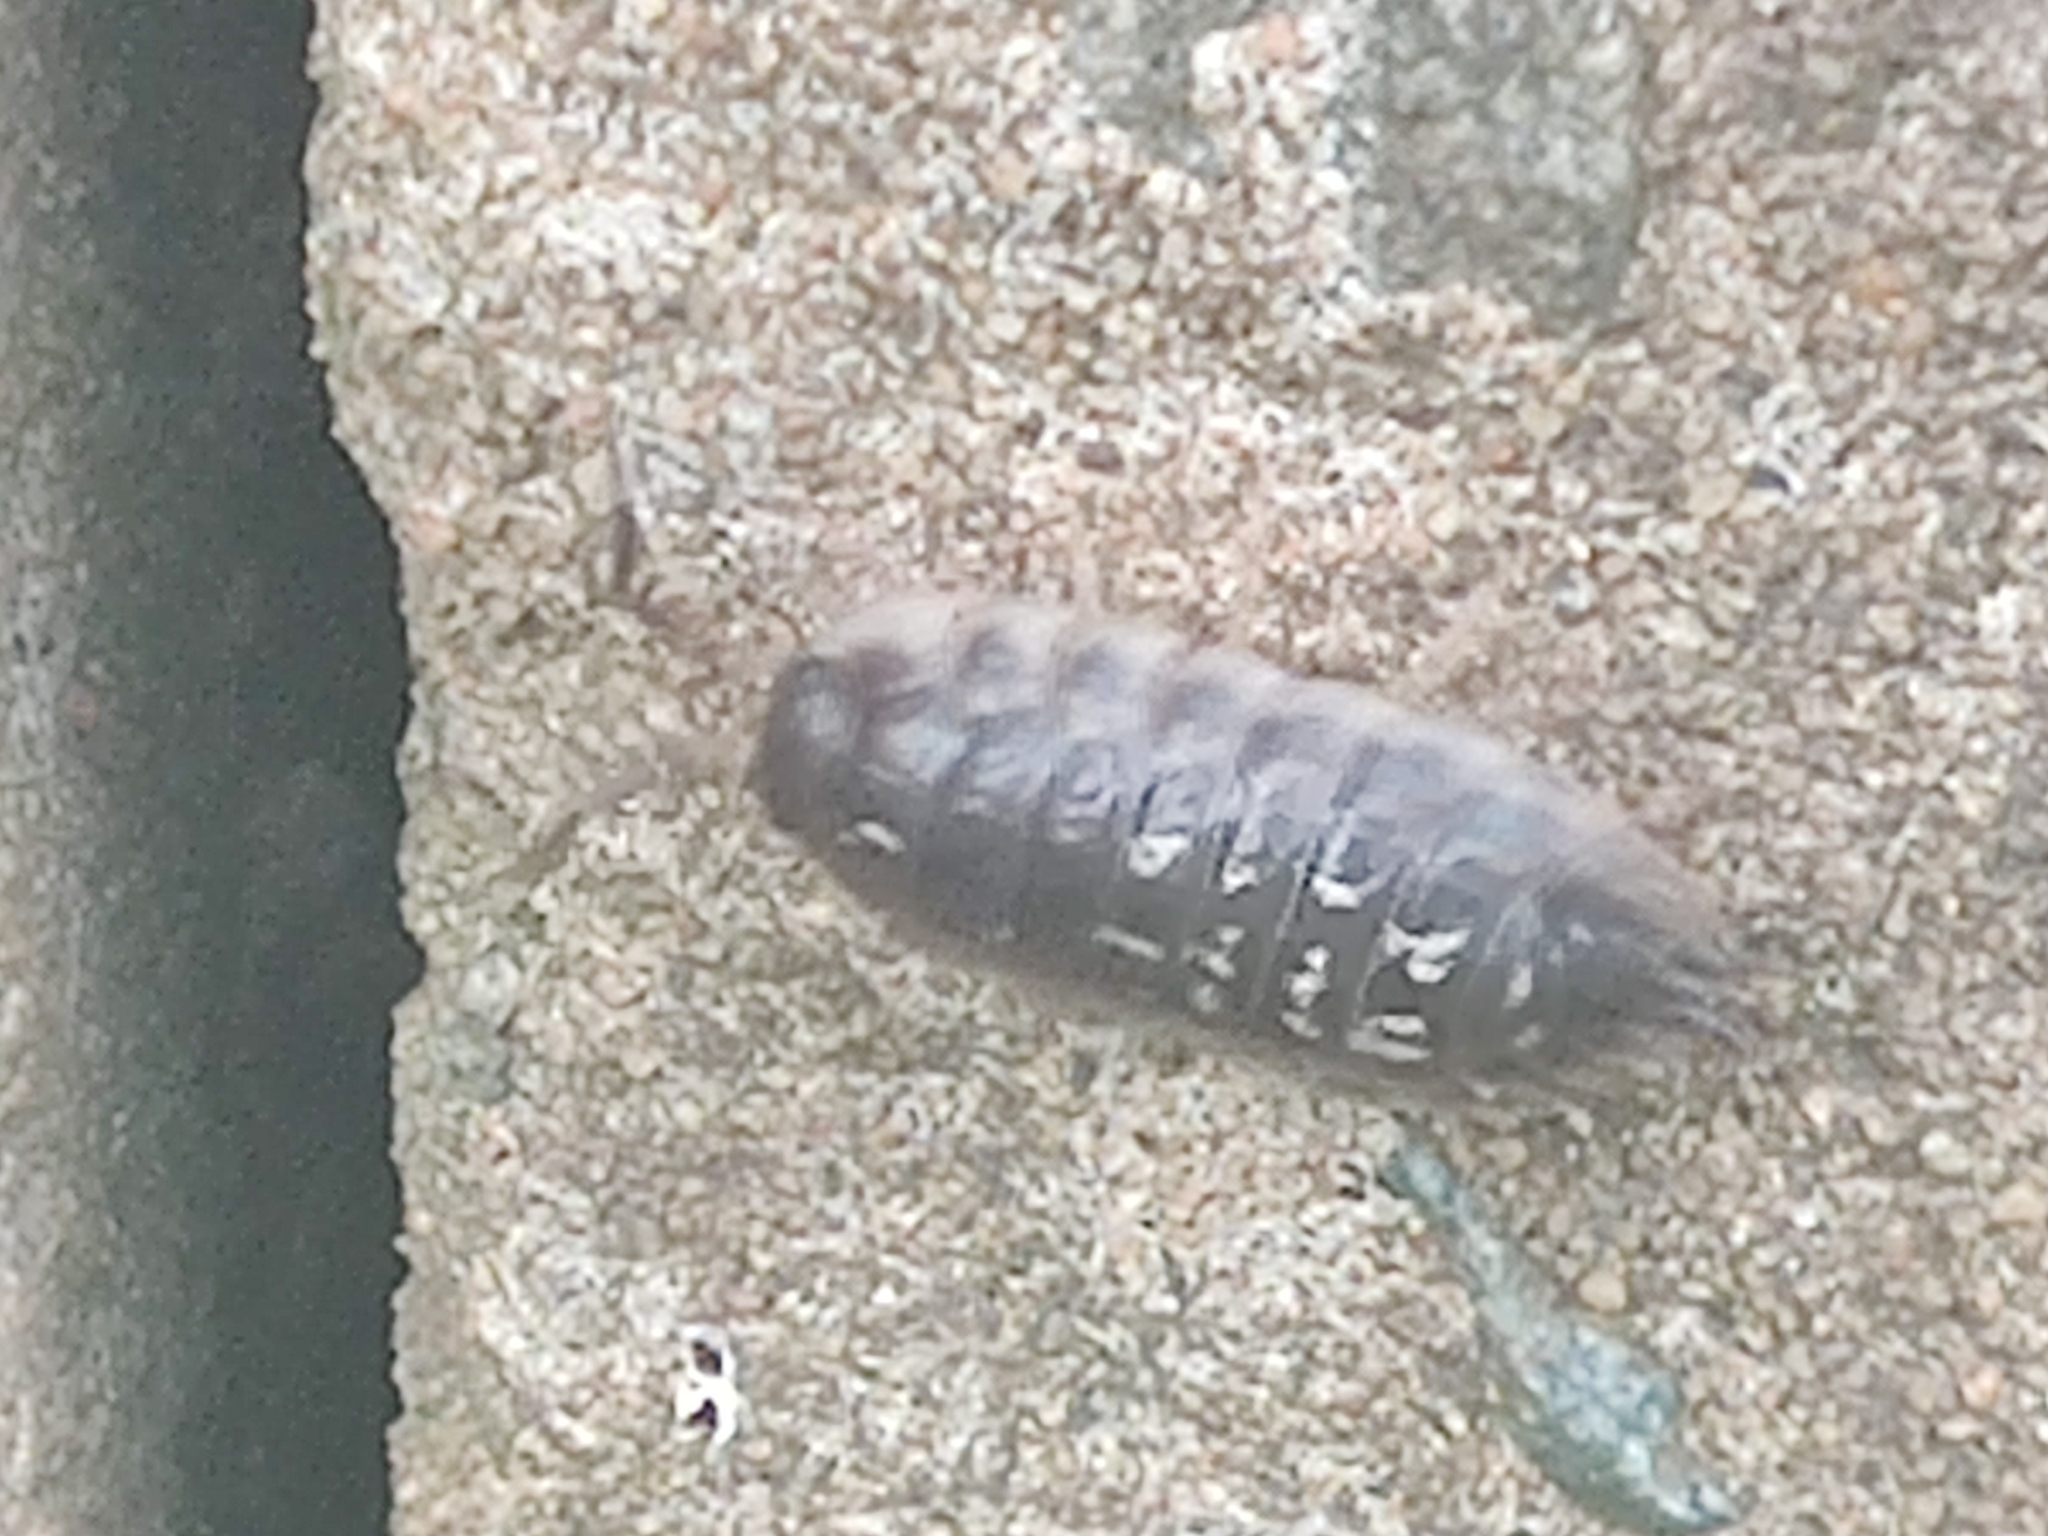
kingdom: Animalia
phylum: Arthropoda
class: Malacostraca
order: Isopoda
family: Oniscidae
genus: Oniscus
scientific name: Oniscus asellus
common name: Common shiny woodlouse
